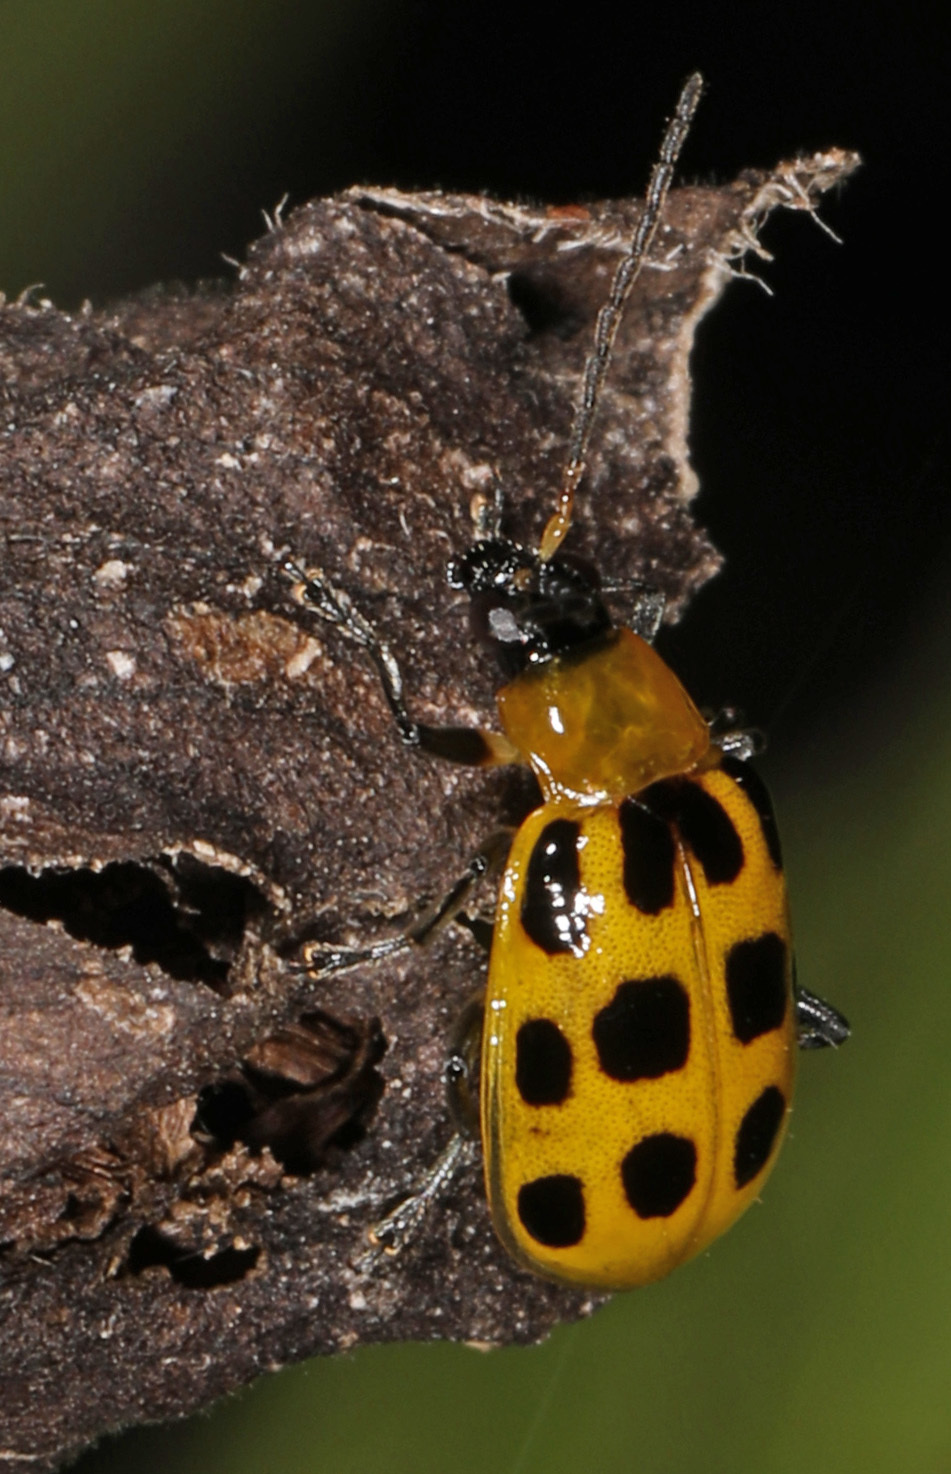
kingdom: Animalia
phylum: Arthropoda
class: Insecta
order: Coleoptera
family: Chrysomelidae
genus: Diabrotica
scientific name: Diabrotica undecimpunctata
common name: Spotted cucumber beetle
